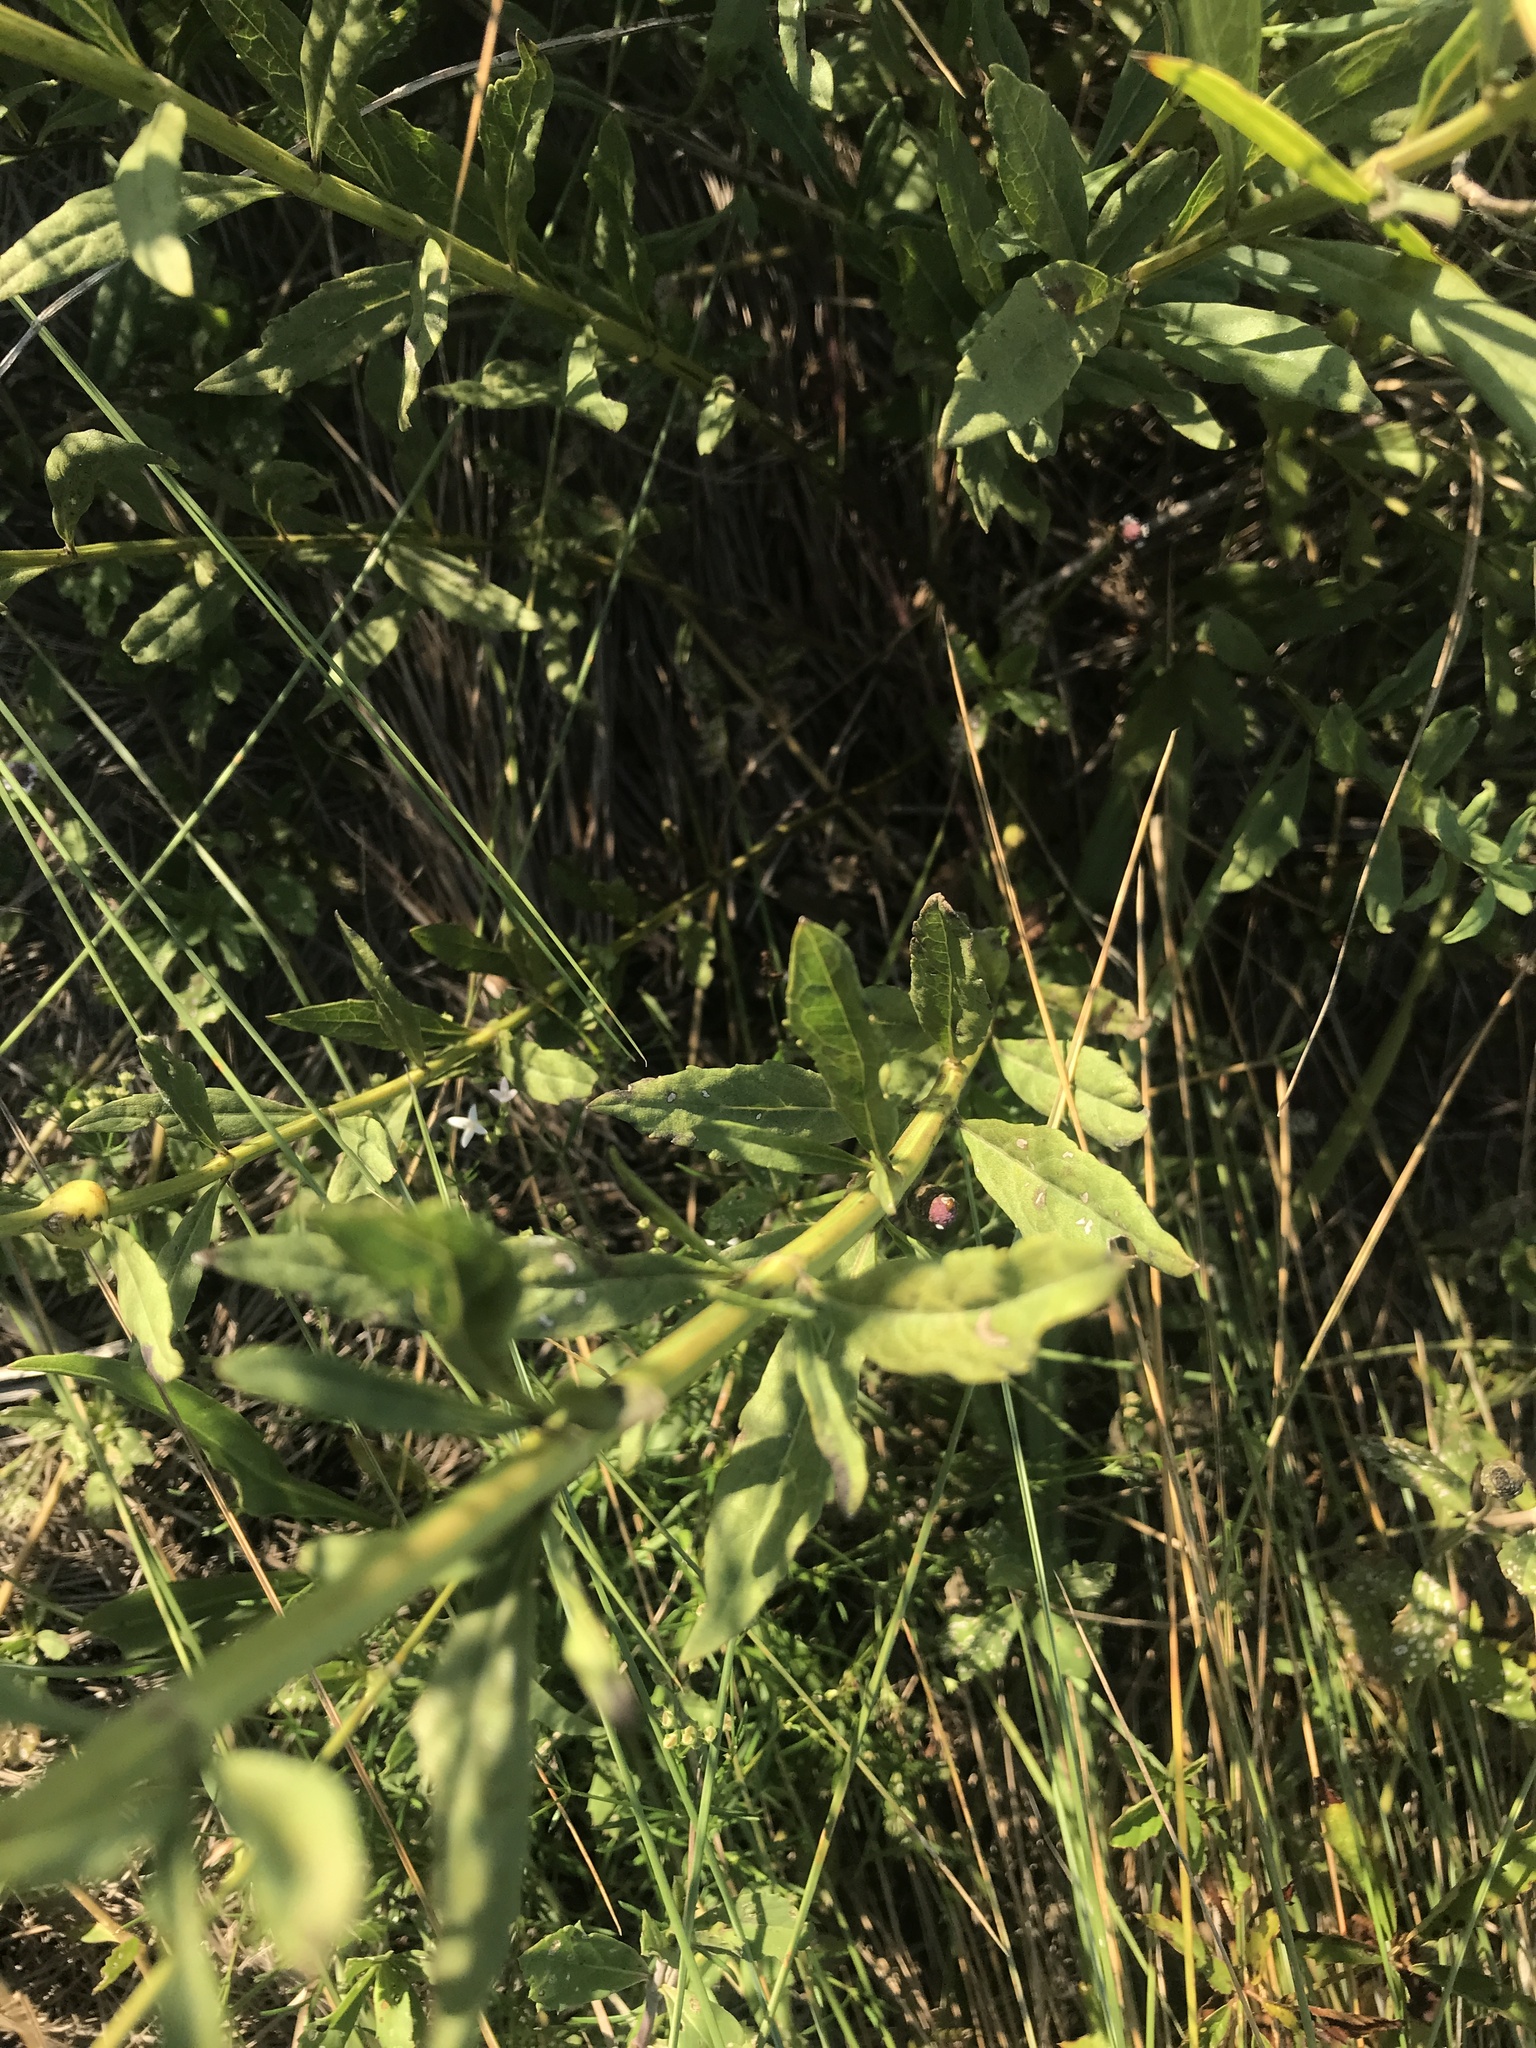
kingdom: Plantae
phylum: Tracheophyta
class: Magnoliopsida
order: Lamiales
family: Lamiaceae
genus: Salvia
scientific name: Salvia azurea
